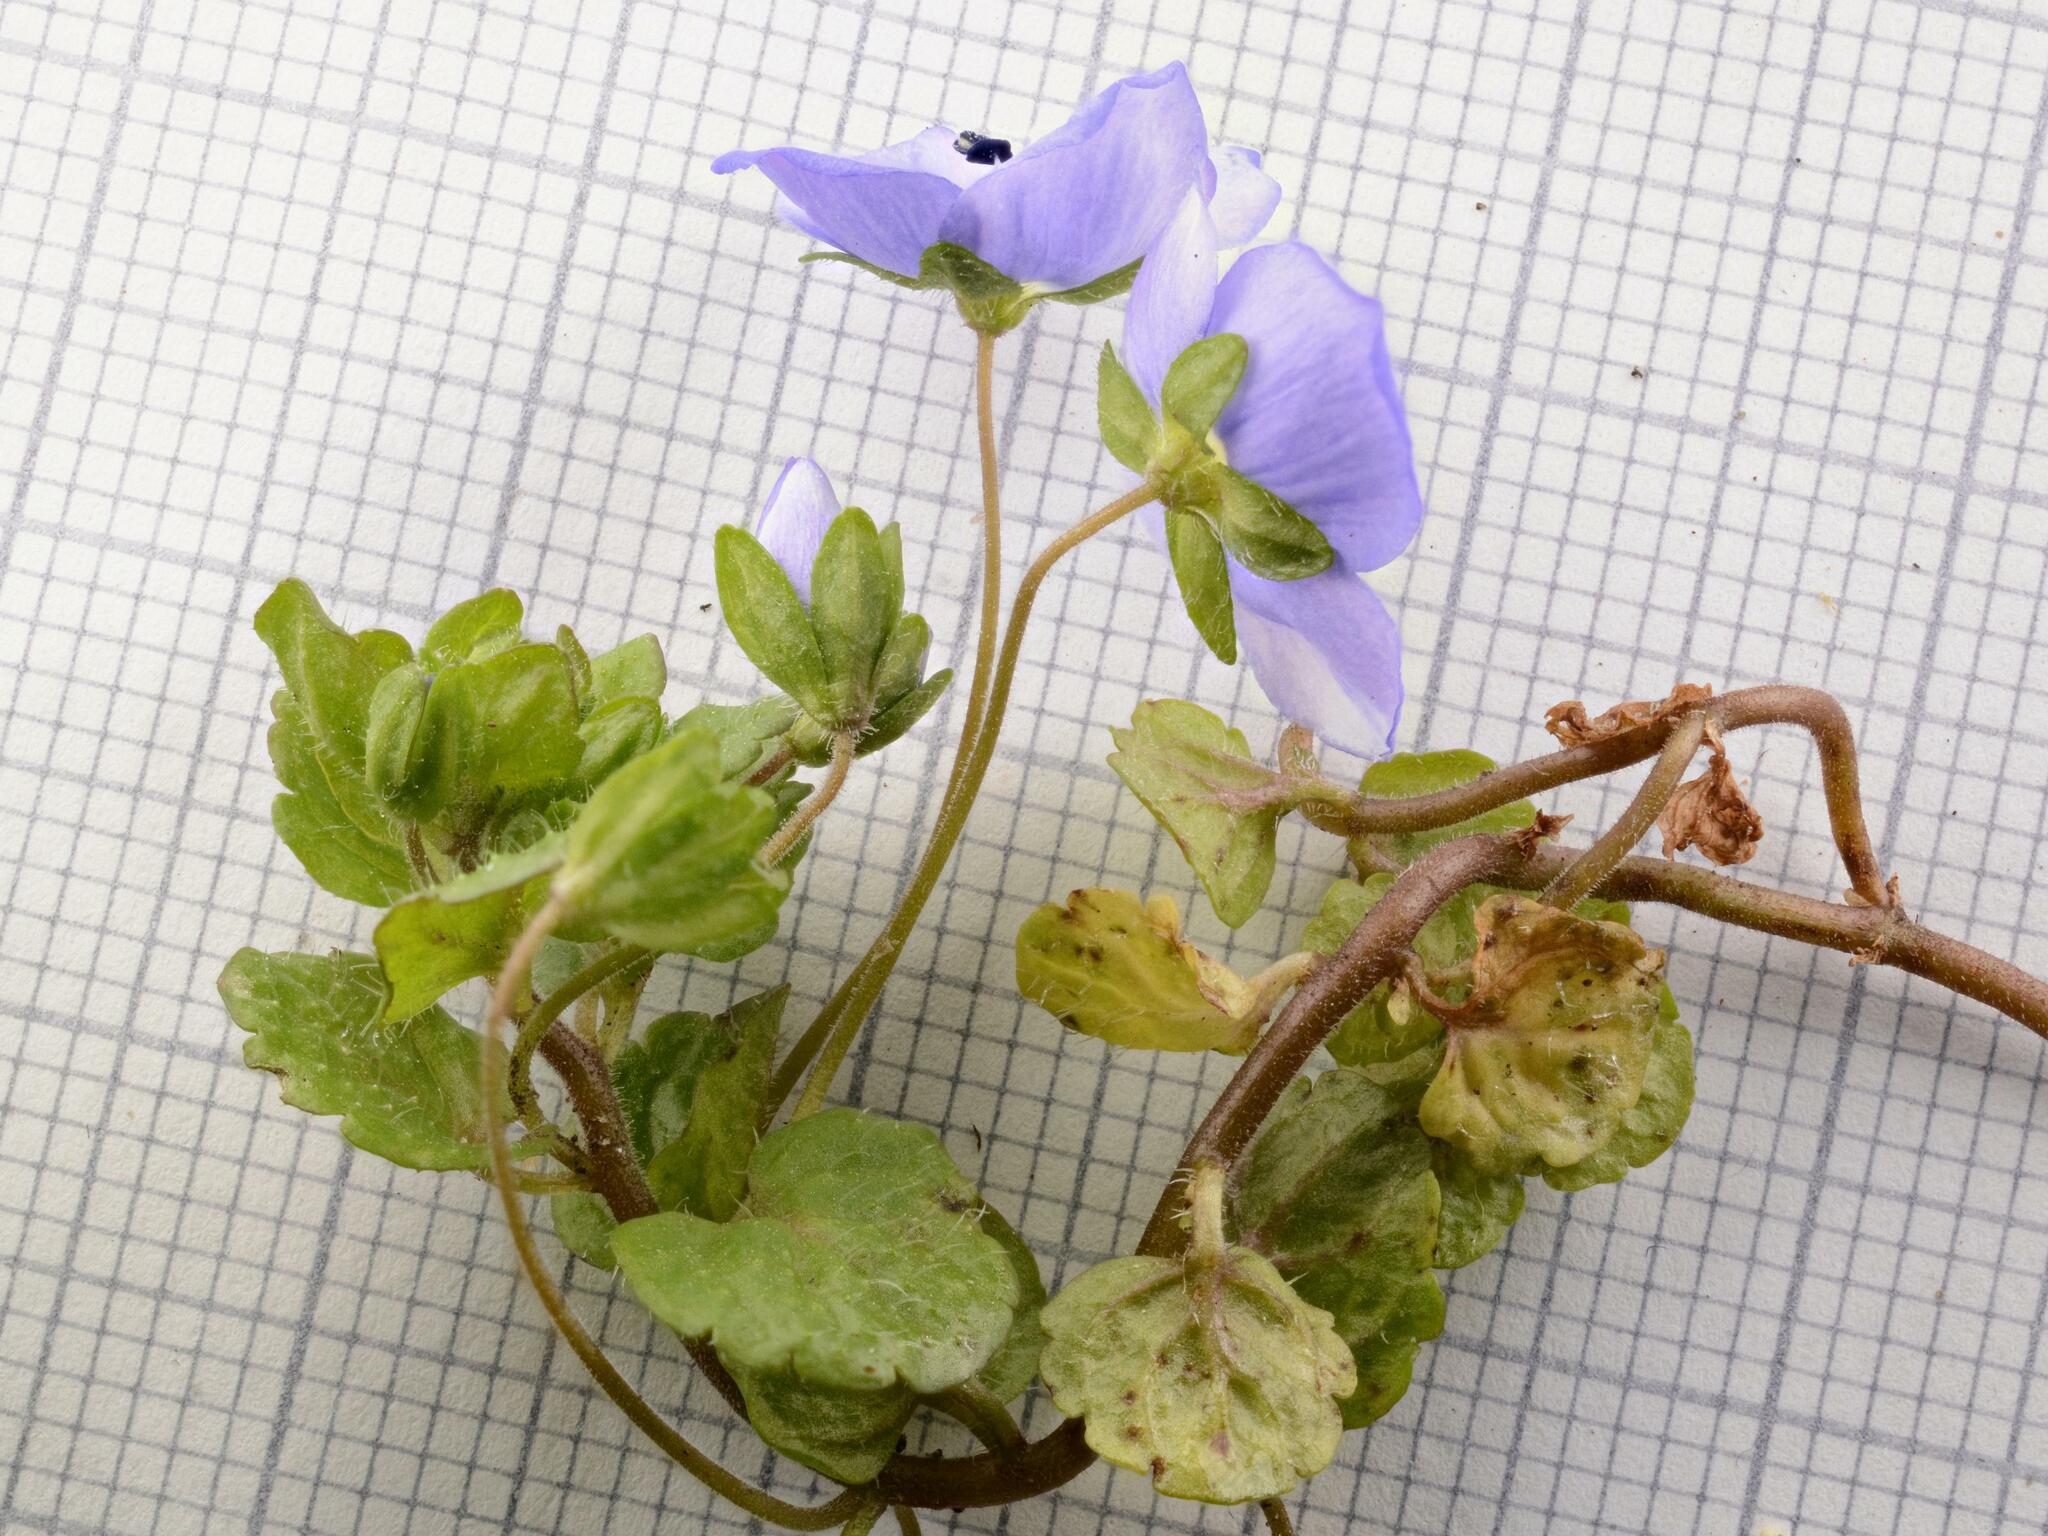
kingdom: Plantae
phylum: Tracheophyta
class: Magnoliopsida
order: Lamiales
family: Plantaginaceae
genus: Veronica
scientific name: Veronica filiformis
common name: Slender speedwell
